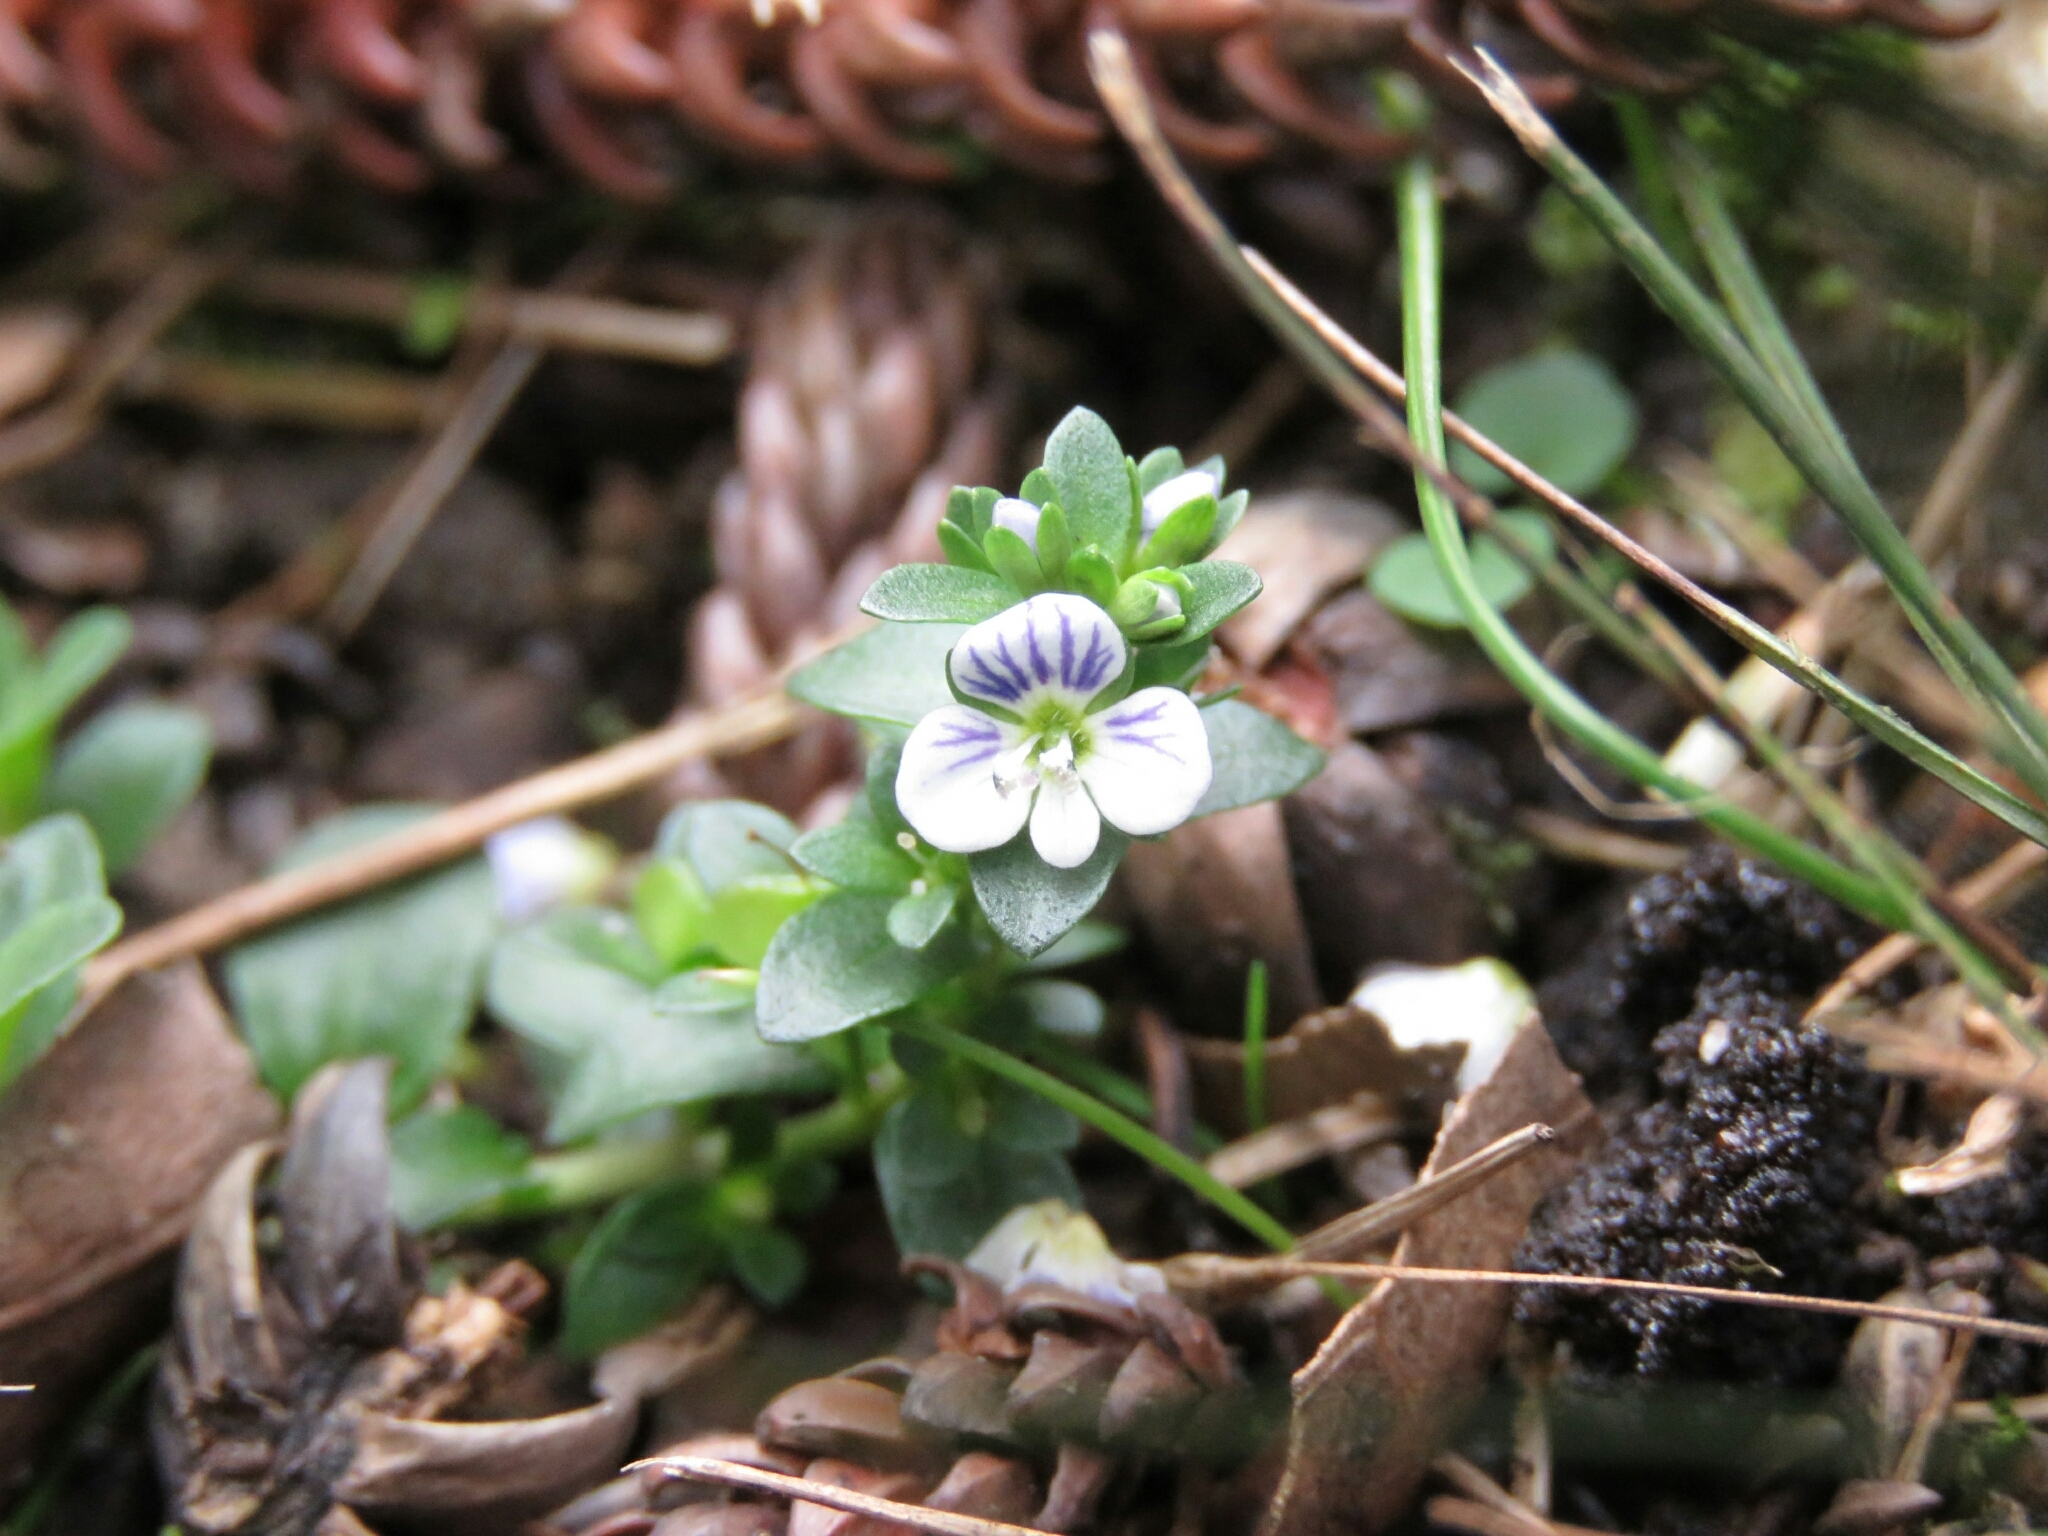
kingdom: Plantae
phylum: Tracheophyta
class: Magnoliopsida
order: Lamiales
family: Plantaginaceae
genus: Veronica
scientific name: Veronica serpyllifolia
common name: Thyme-leaved speedwell
